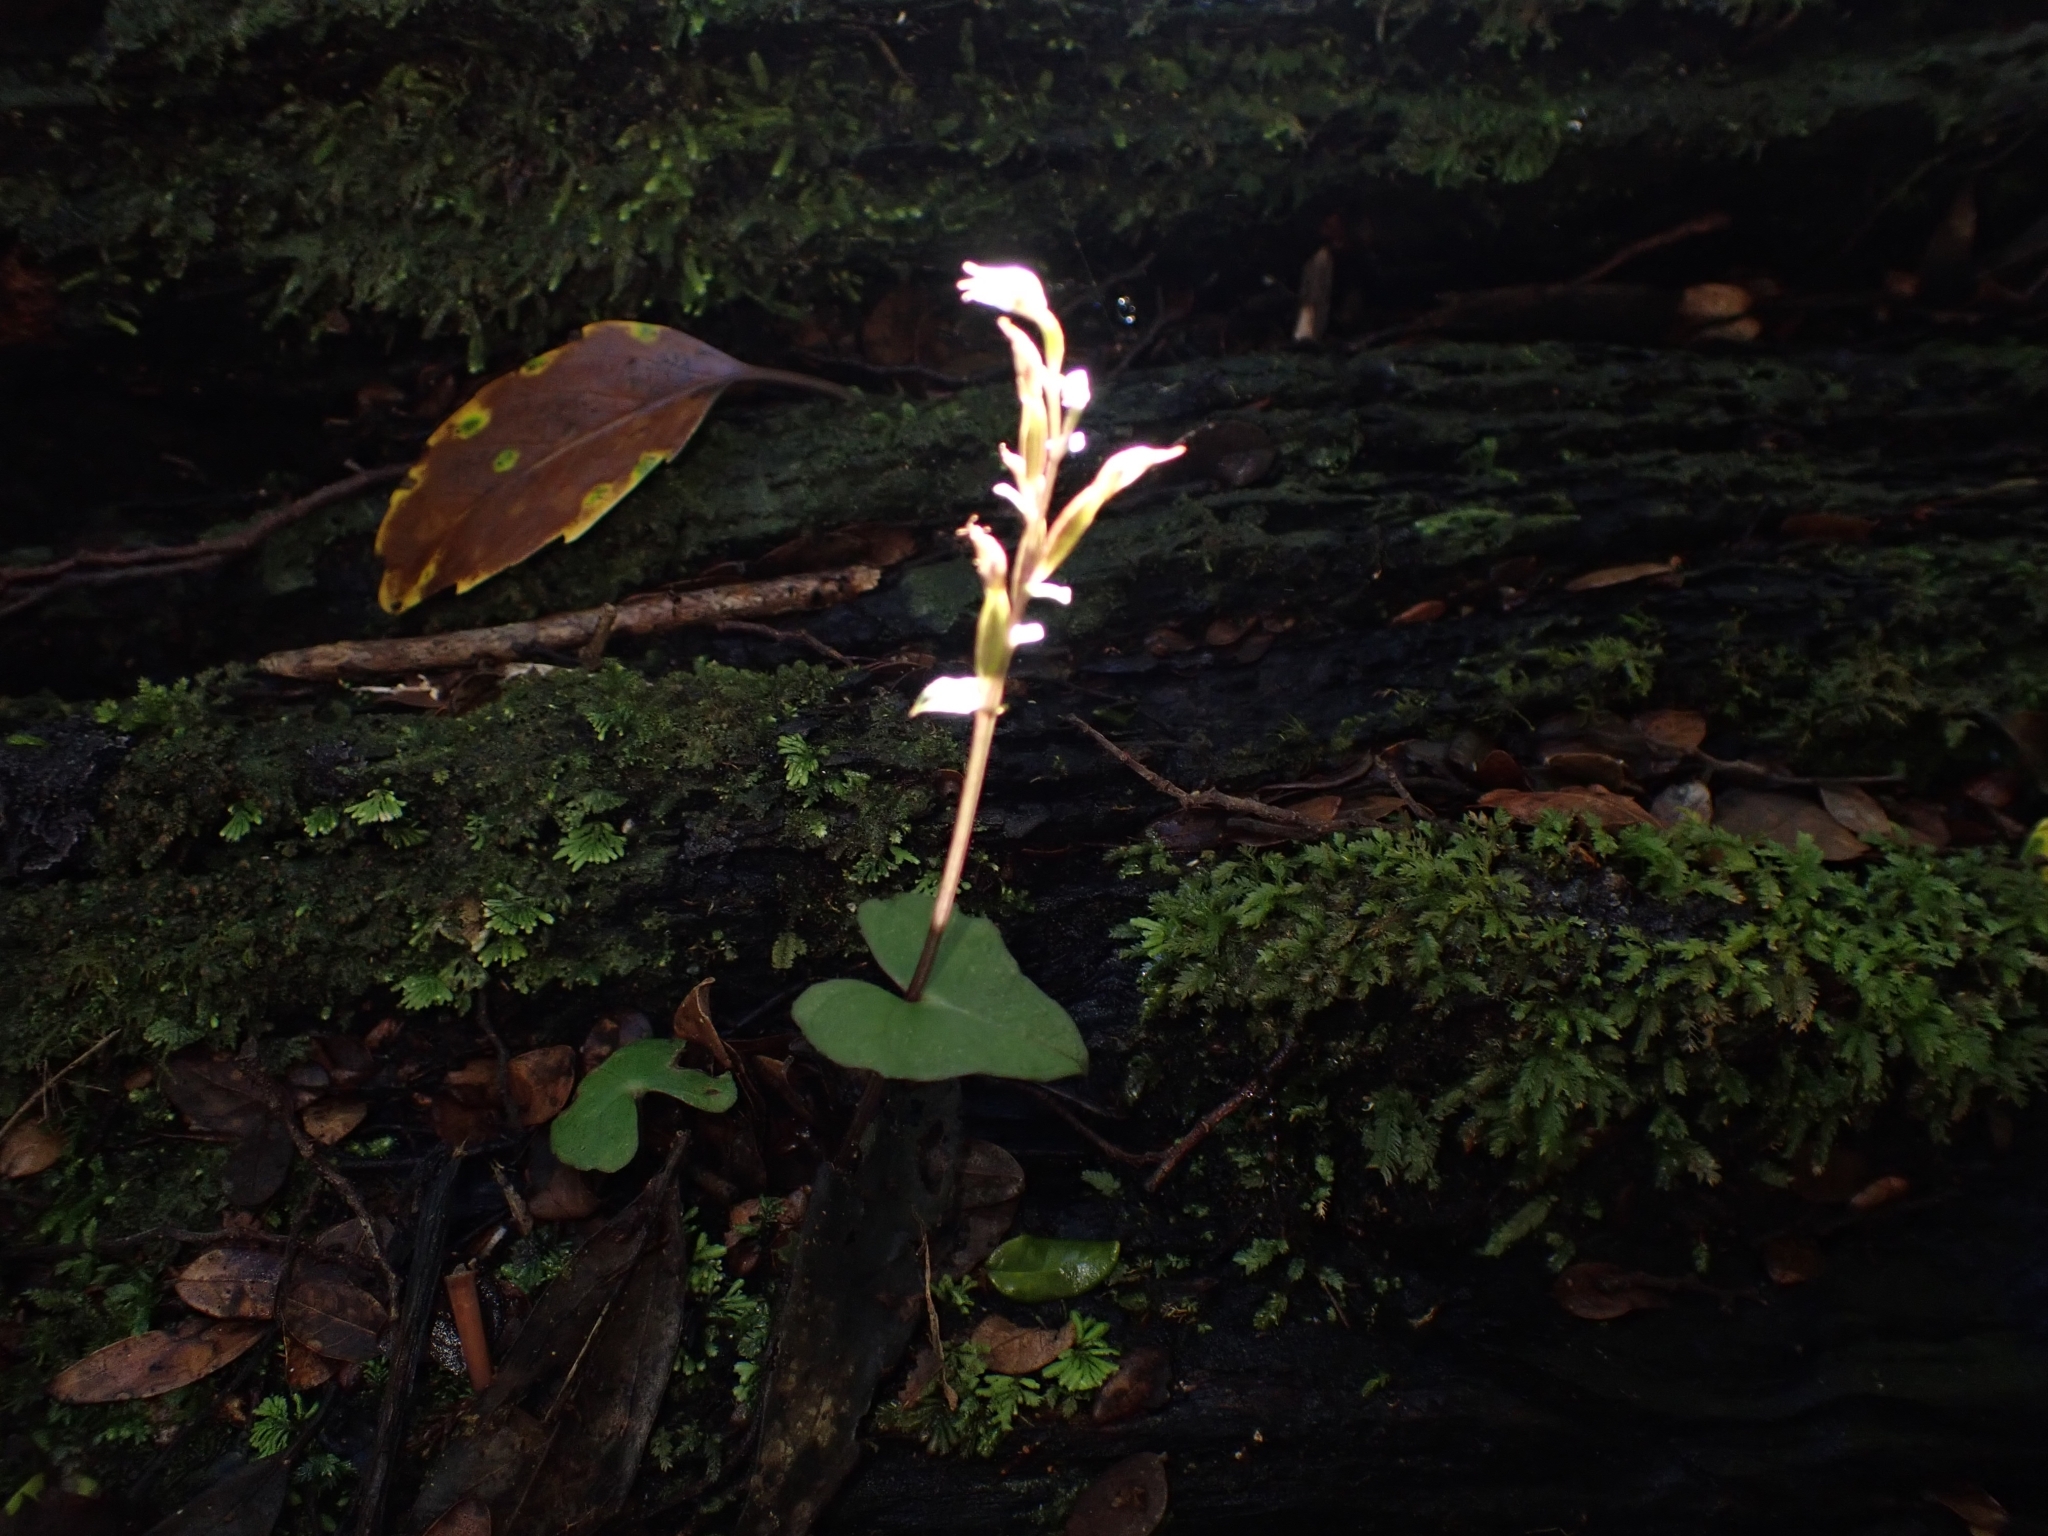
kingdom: Plantae
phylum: Tracheophyta
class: Liliopsida
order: Asparagales
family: Orchidaceae
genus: Acianthus
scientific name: Acianthus sinclairii
